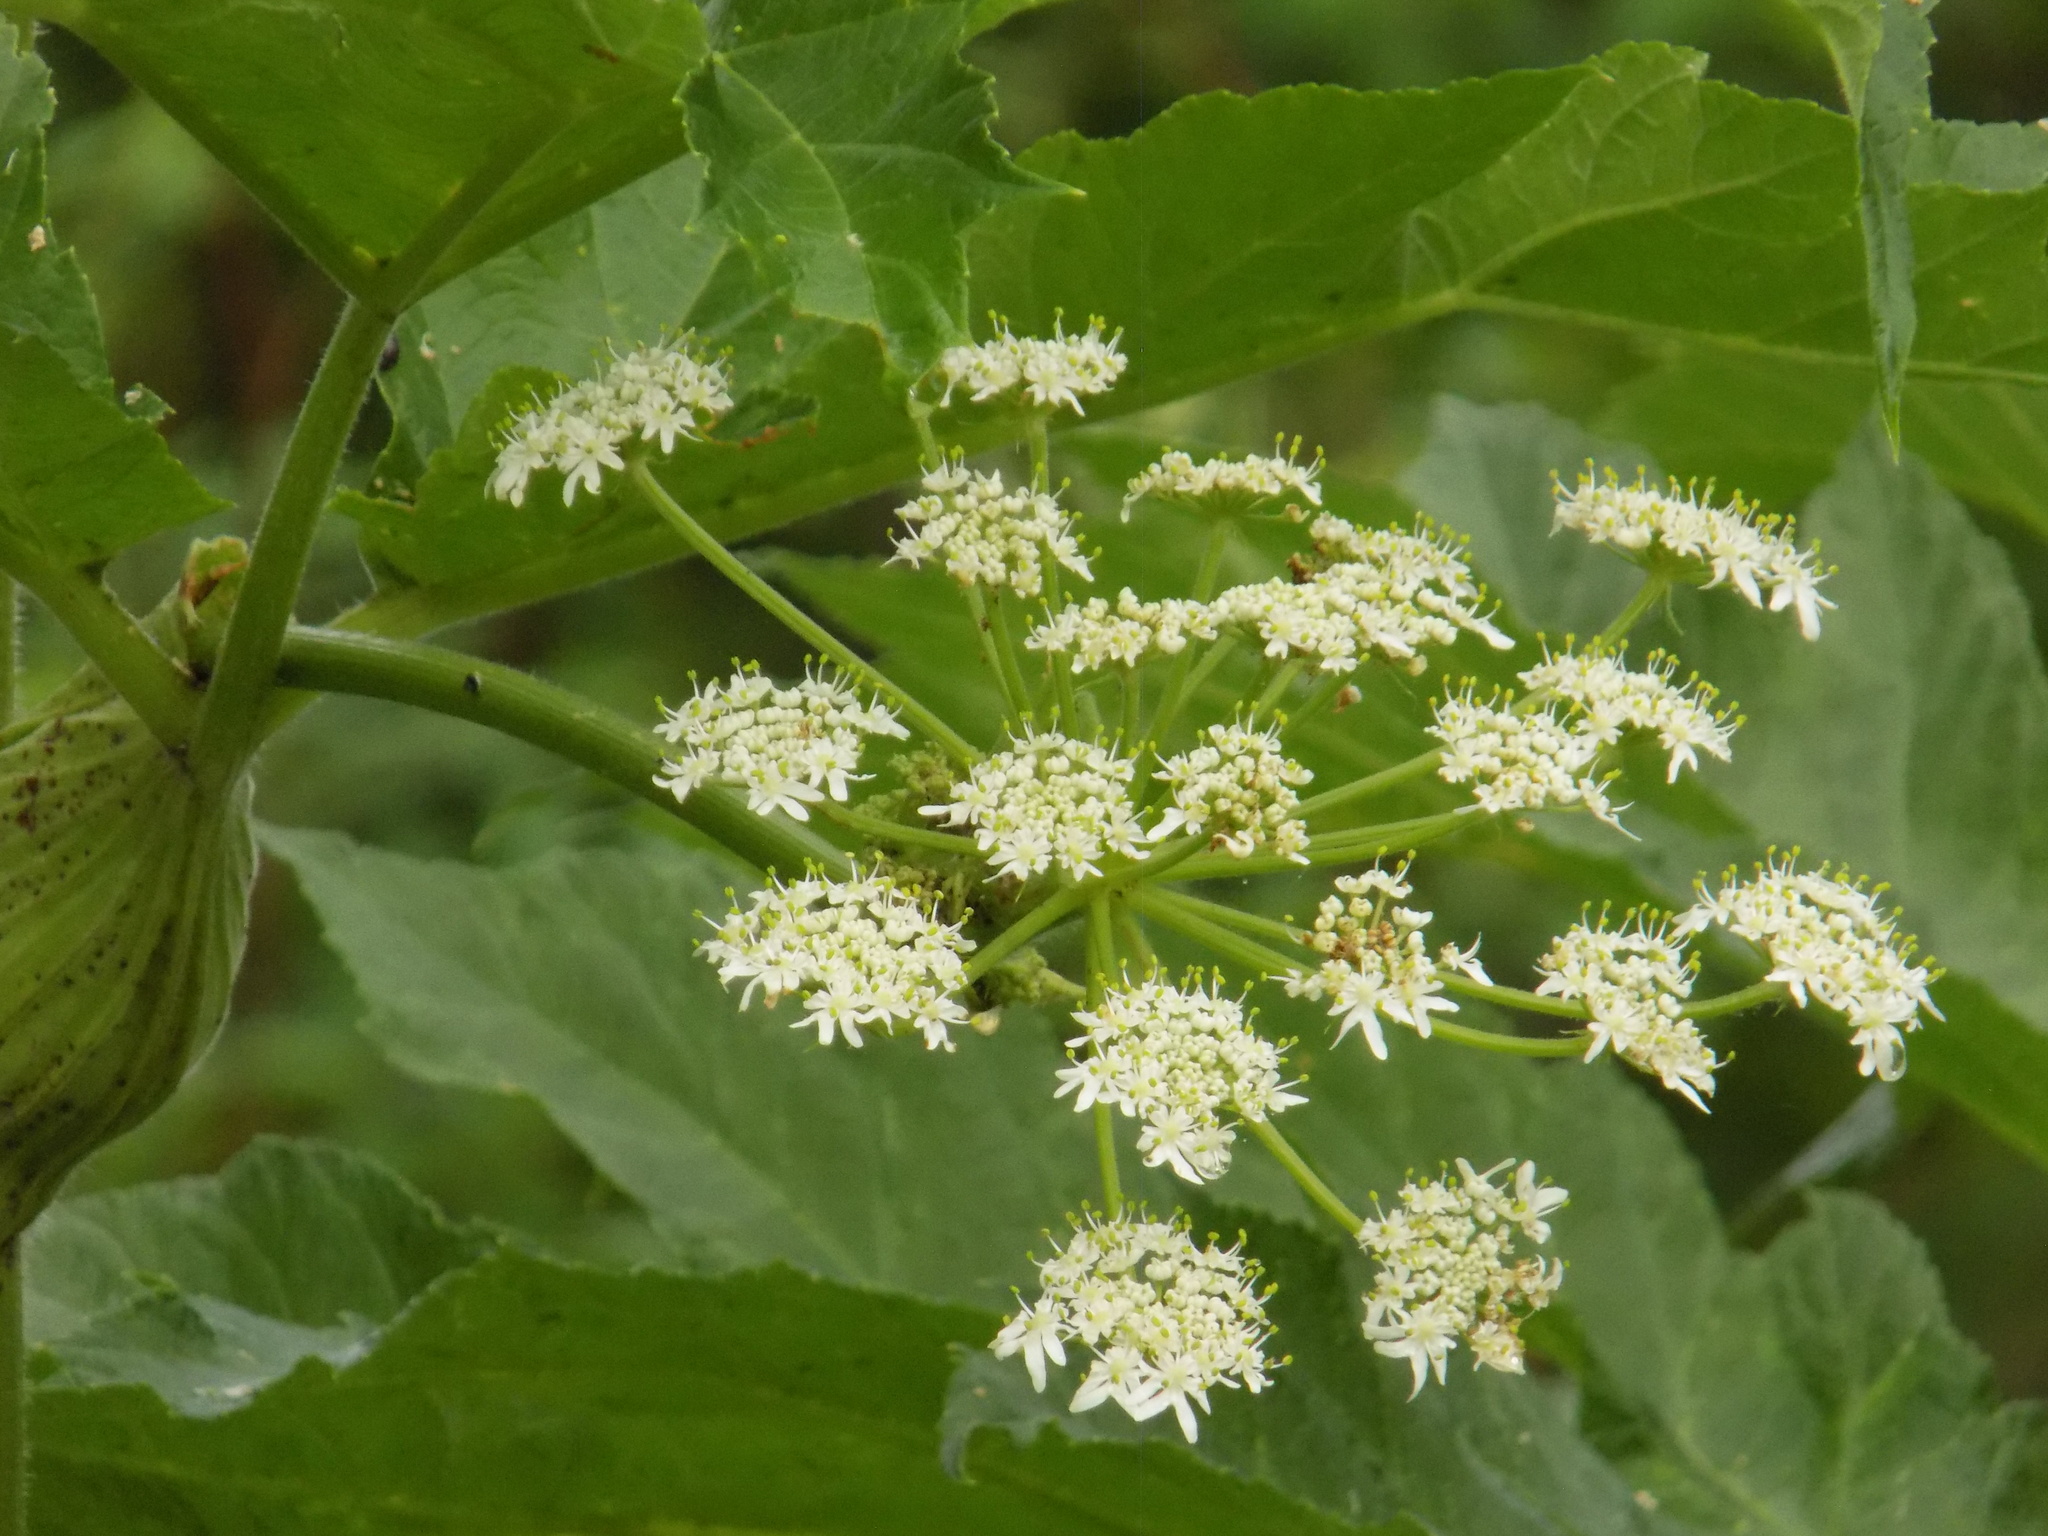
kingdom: Plantae
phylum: Tracheophyta
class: Magnoliopsida
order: Apiales
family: Apiaceae
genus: Heracleum
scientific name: Heracleum dissectum
